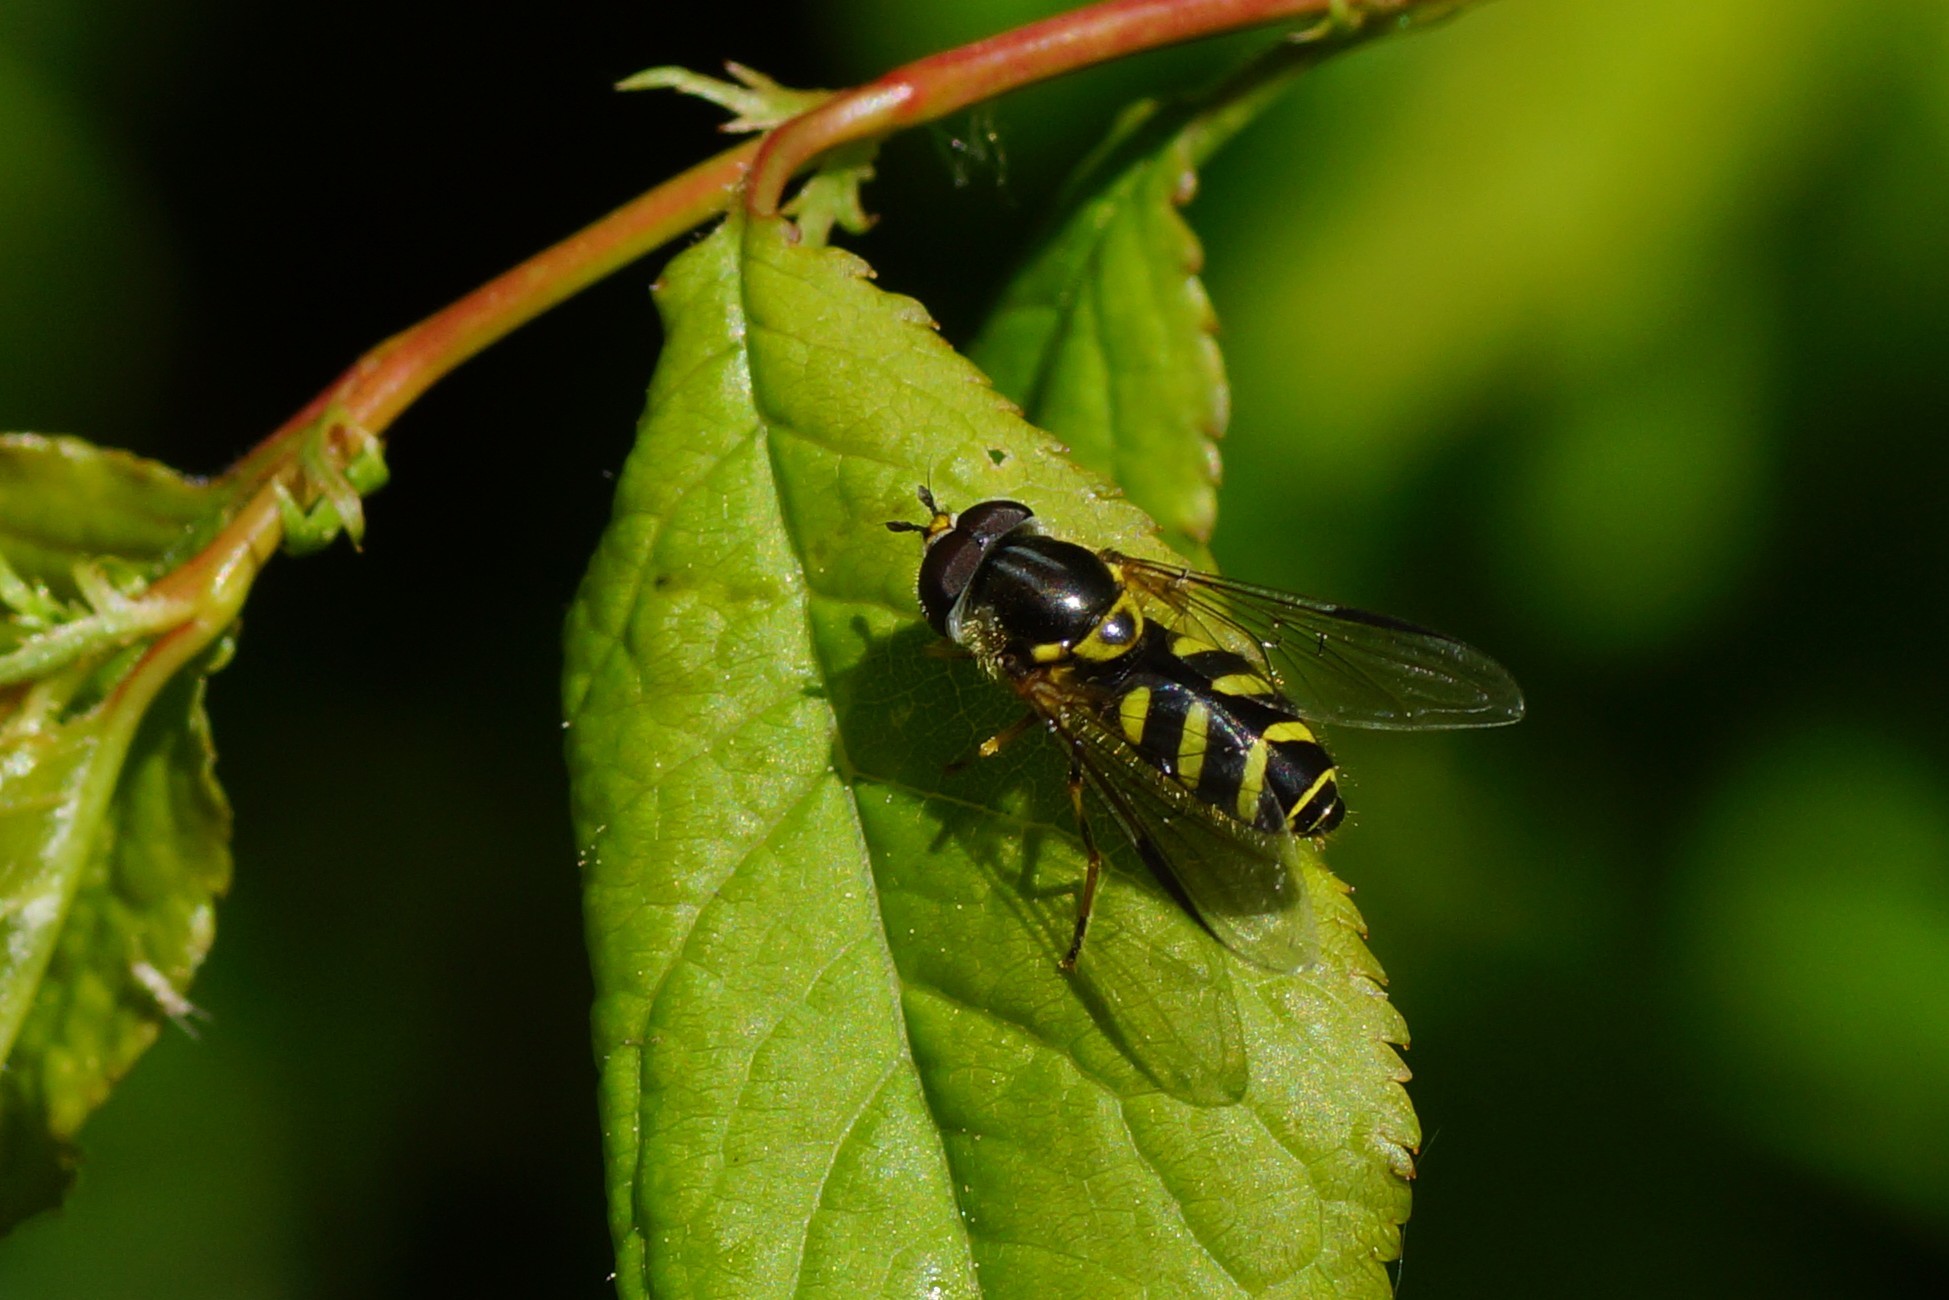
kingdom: Animalia
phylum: Arthropoda
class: Insecta
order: Diptera
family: Syrphidae
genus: Dasysyrphus
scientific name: Dasysyrphus albostriatus
